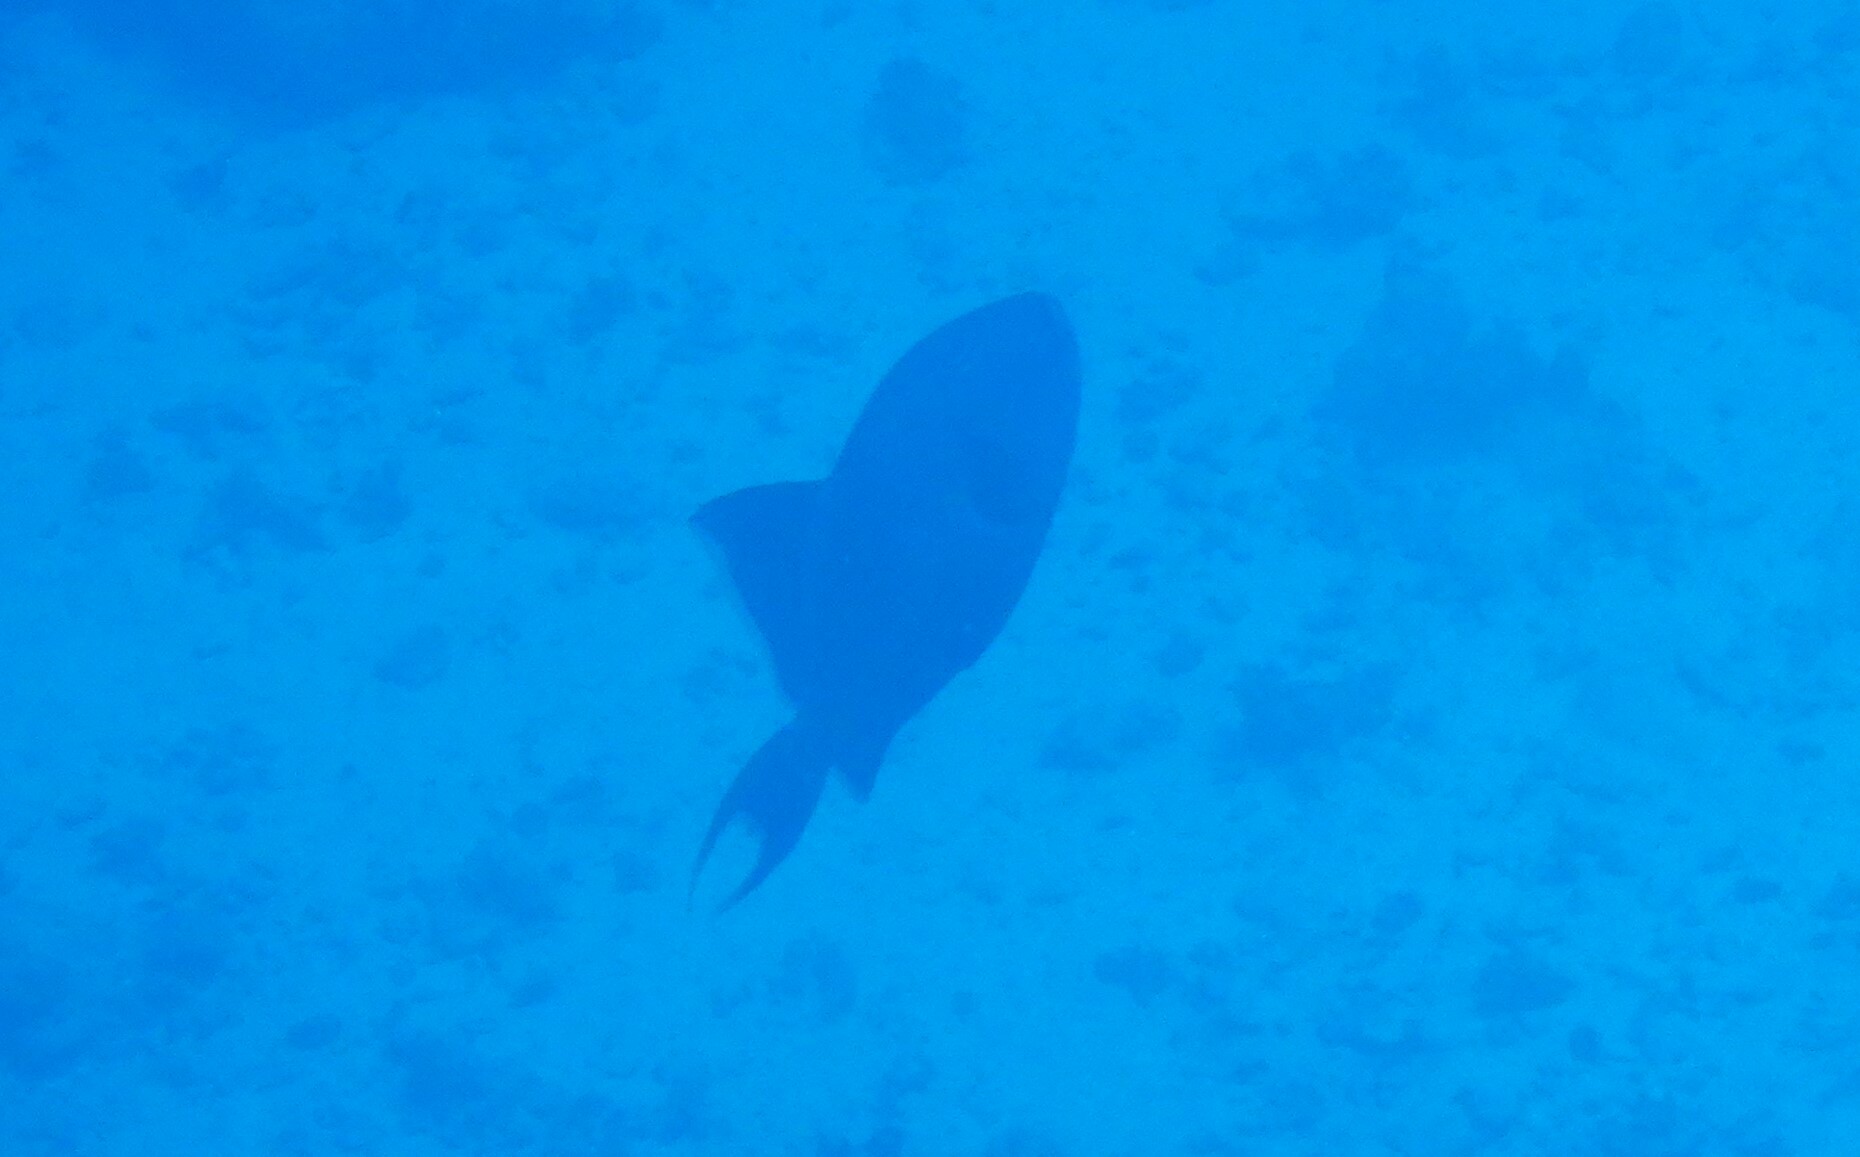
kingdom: Animalia
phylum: Chordata
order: Tetraodontiformes
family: Balistidae
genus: Pseudobalistes
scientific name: Pseudobalistes fuscus
